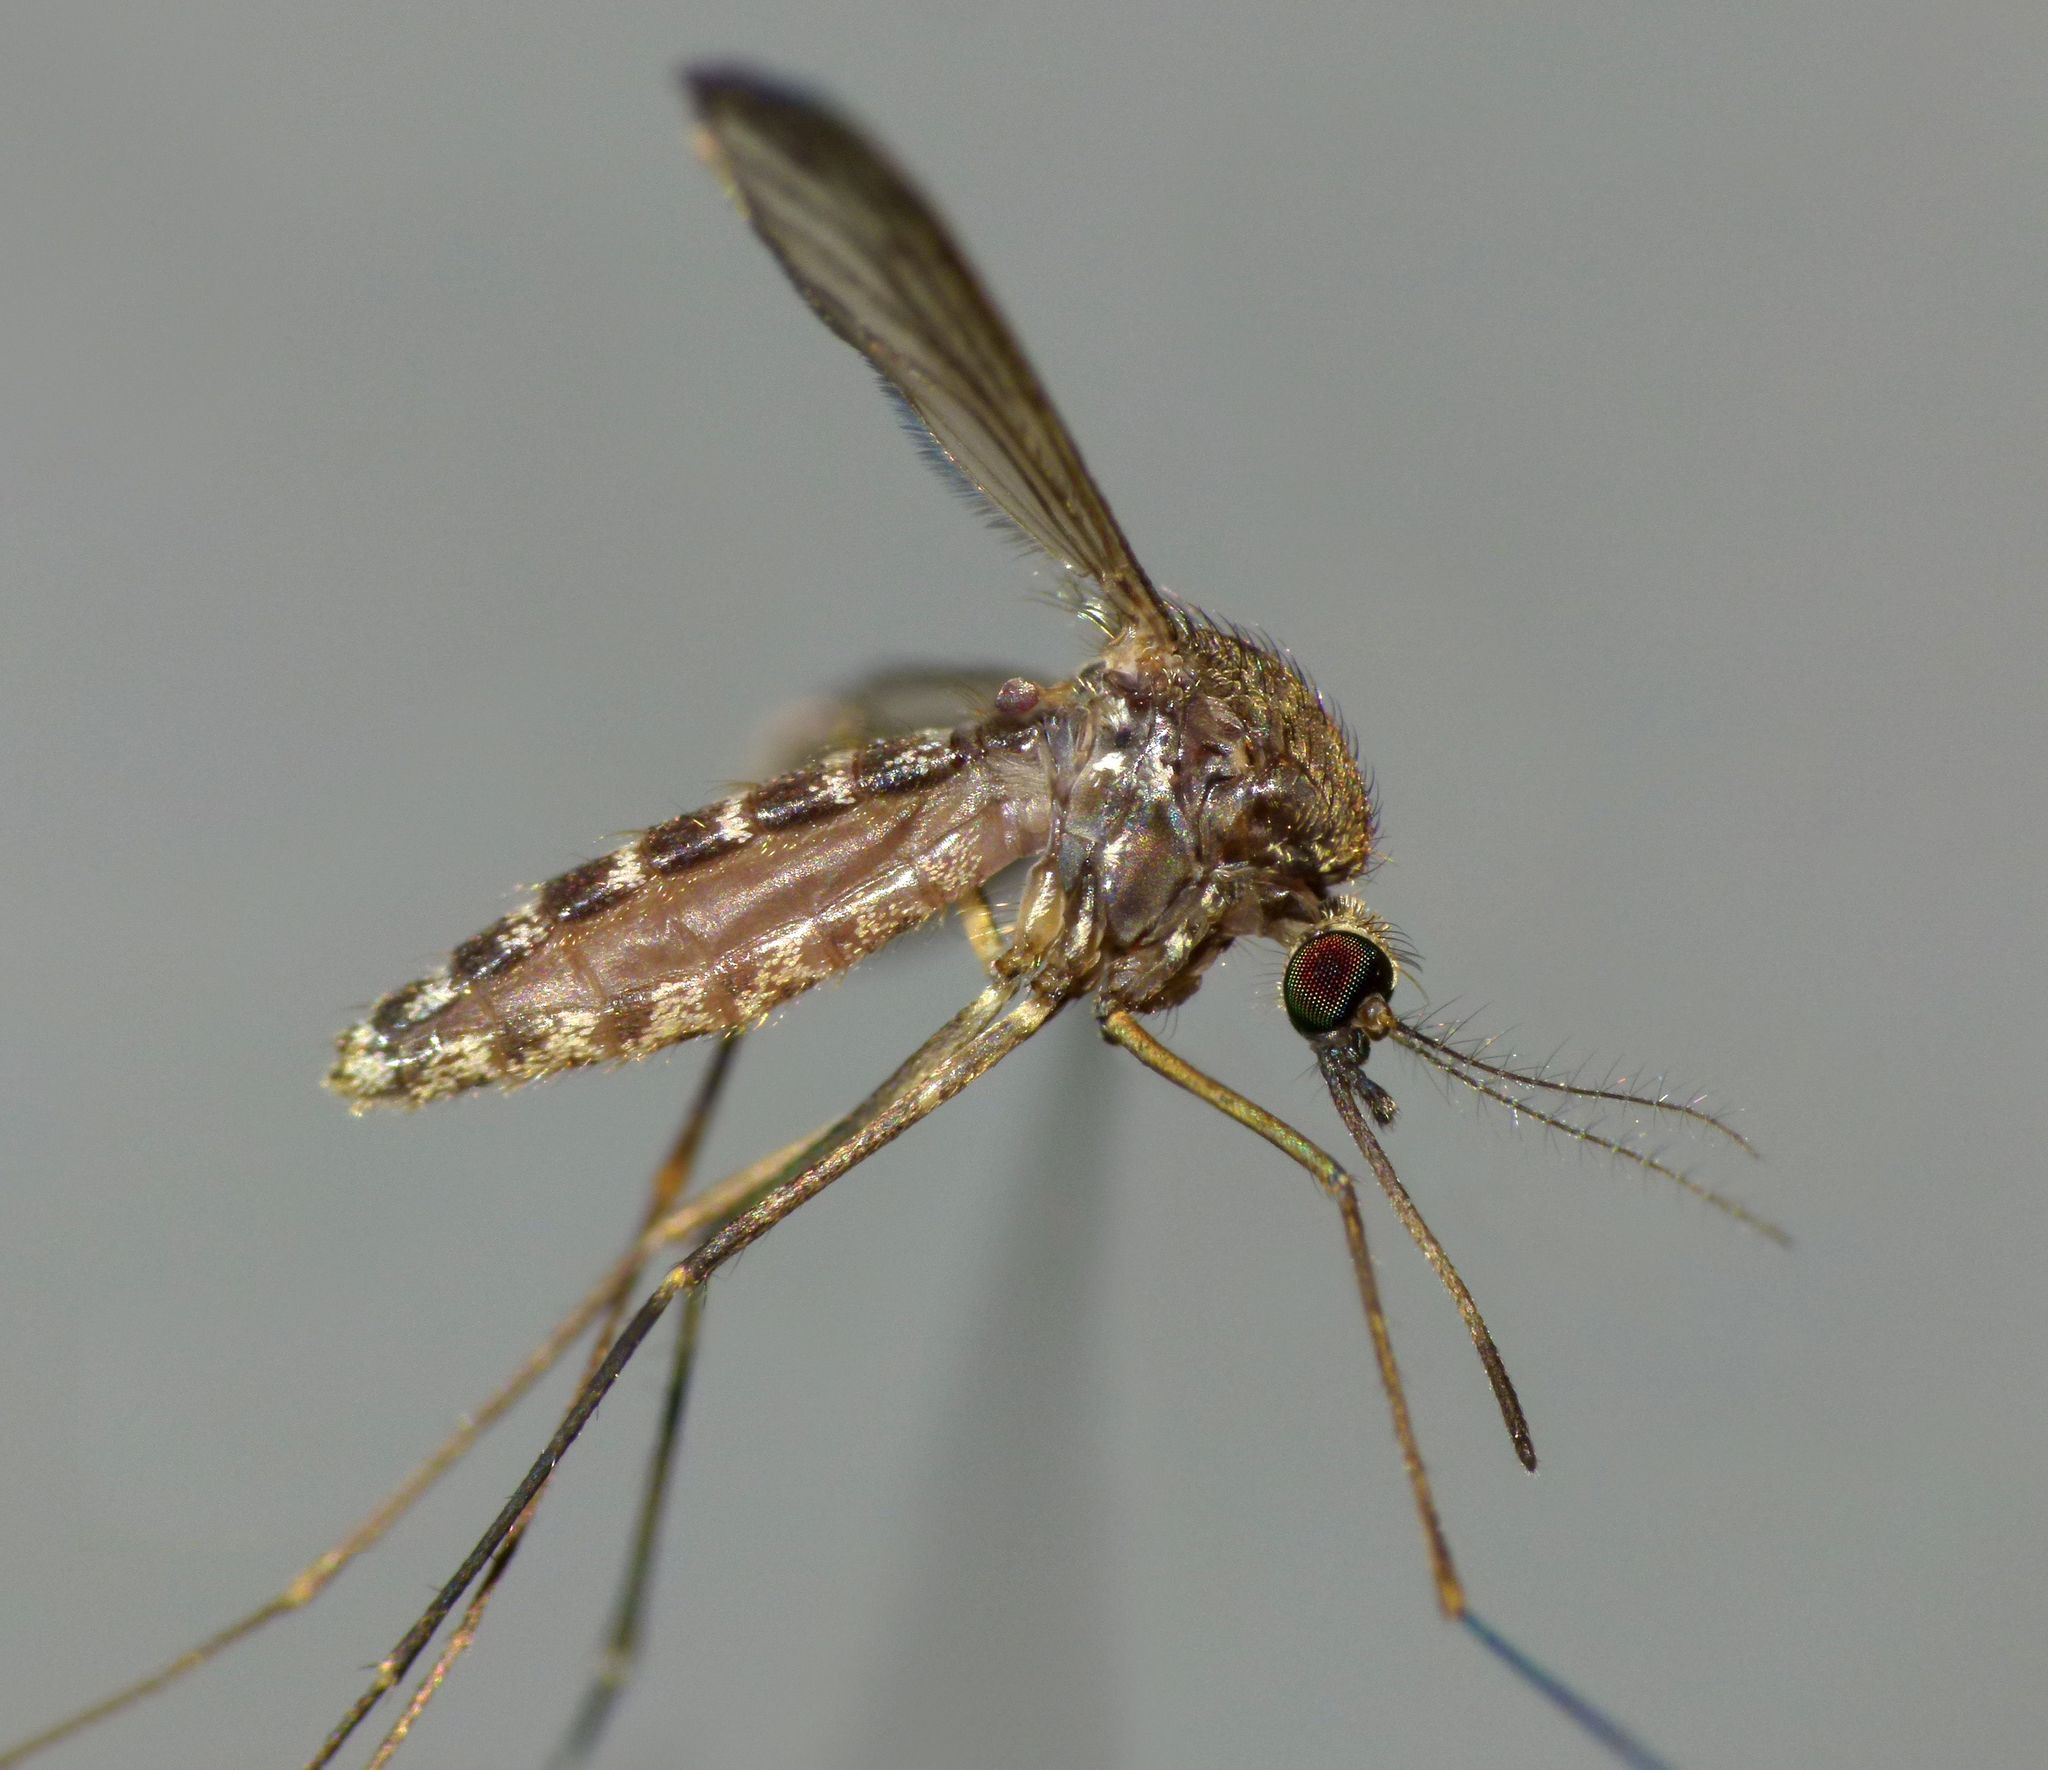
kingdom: Animalia
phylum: Arthropoda
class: Insecta
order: Diptera
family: Culicidae
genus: Culex
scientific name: Culex pervigilans
